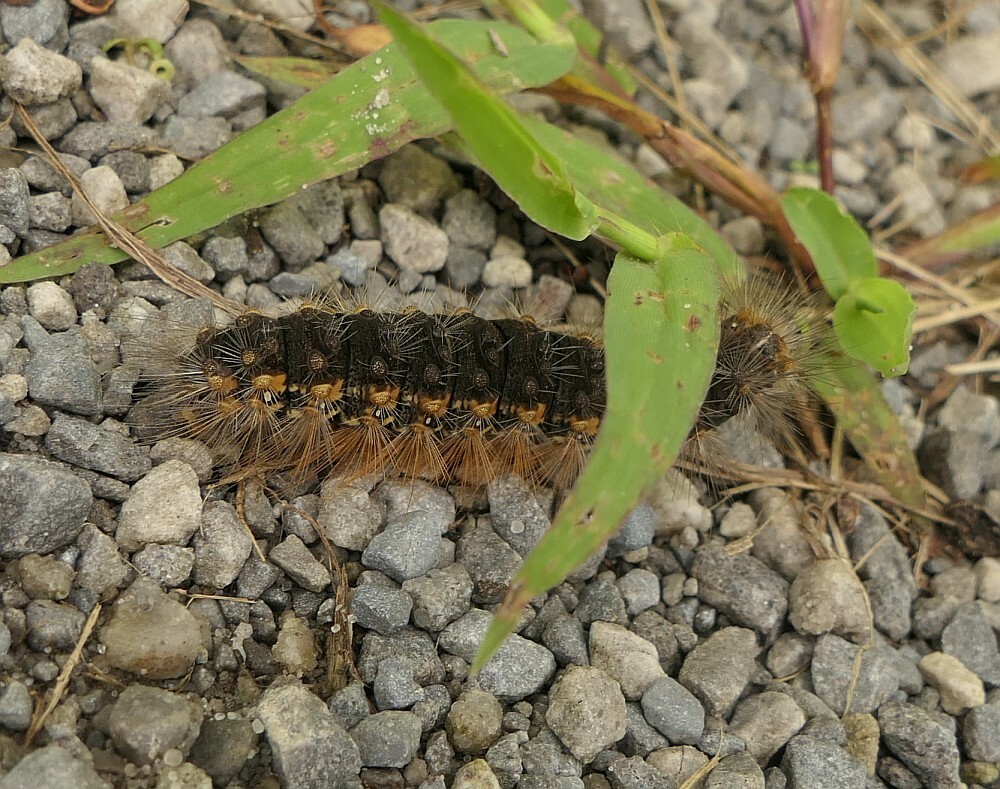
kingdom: Animalia
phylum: Arthropoda
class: Insecta
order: Lepidoptera
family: Erebidae
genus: Estigmene
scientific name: Estigmene acrea
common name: Salt marsh moth
